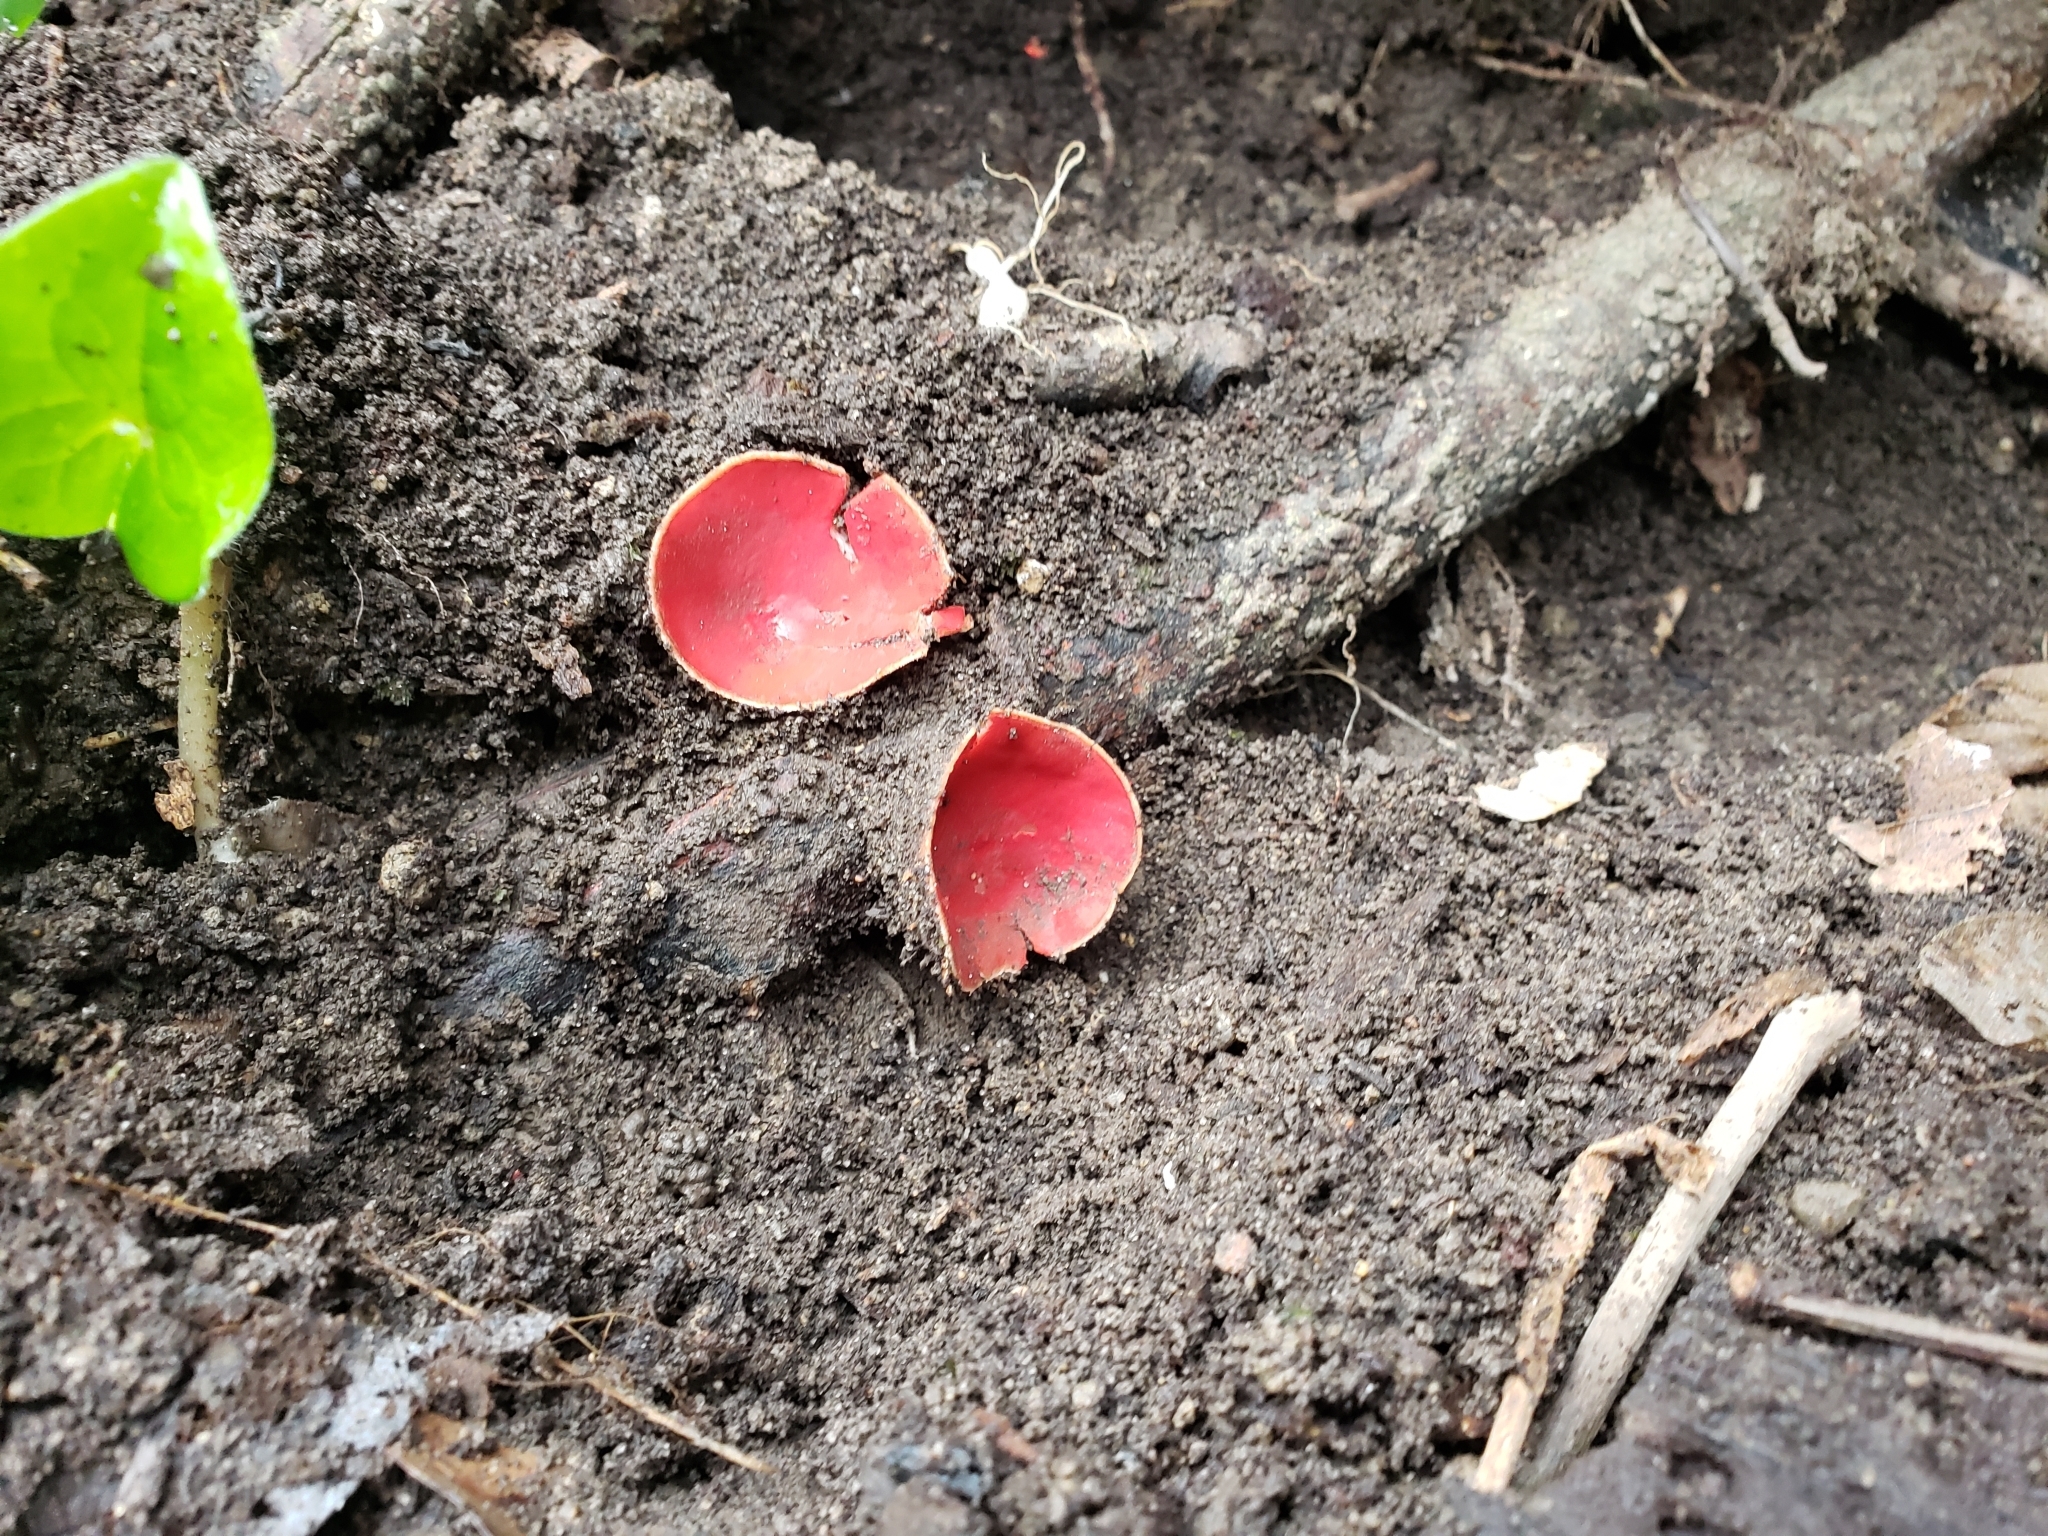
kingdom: Fungi
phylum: Ascomycota
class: Pezizomycetes
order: Pezizales
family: Sarcoscyphaceae
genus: Sarcoscypha
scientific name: Sarcoscypha austriaca
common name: Scarlet elfcup
